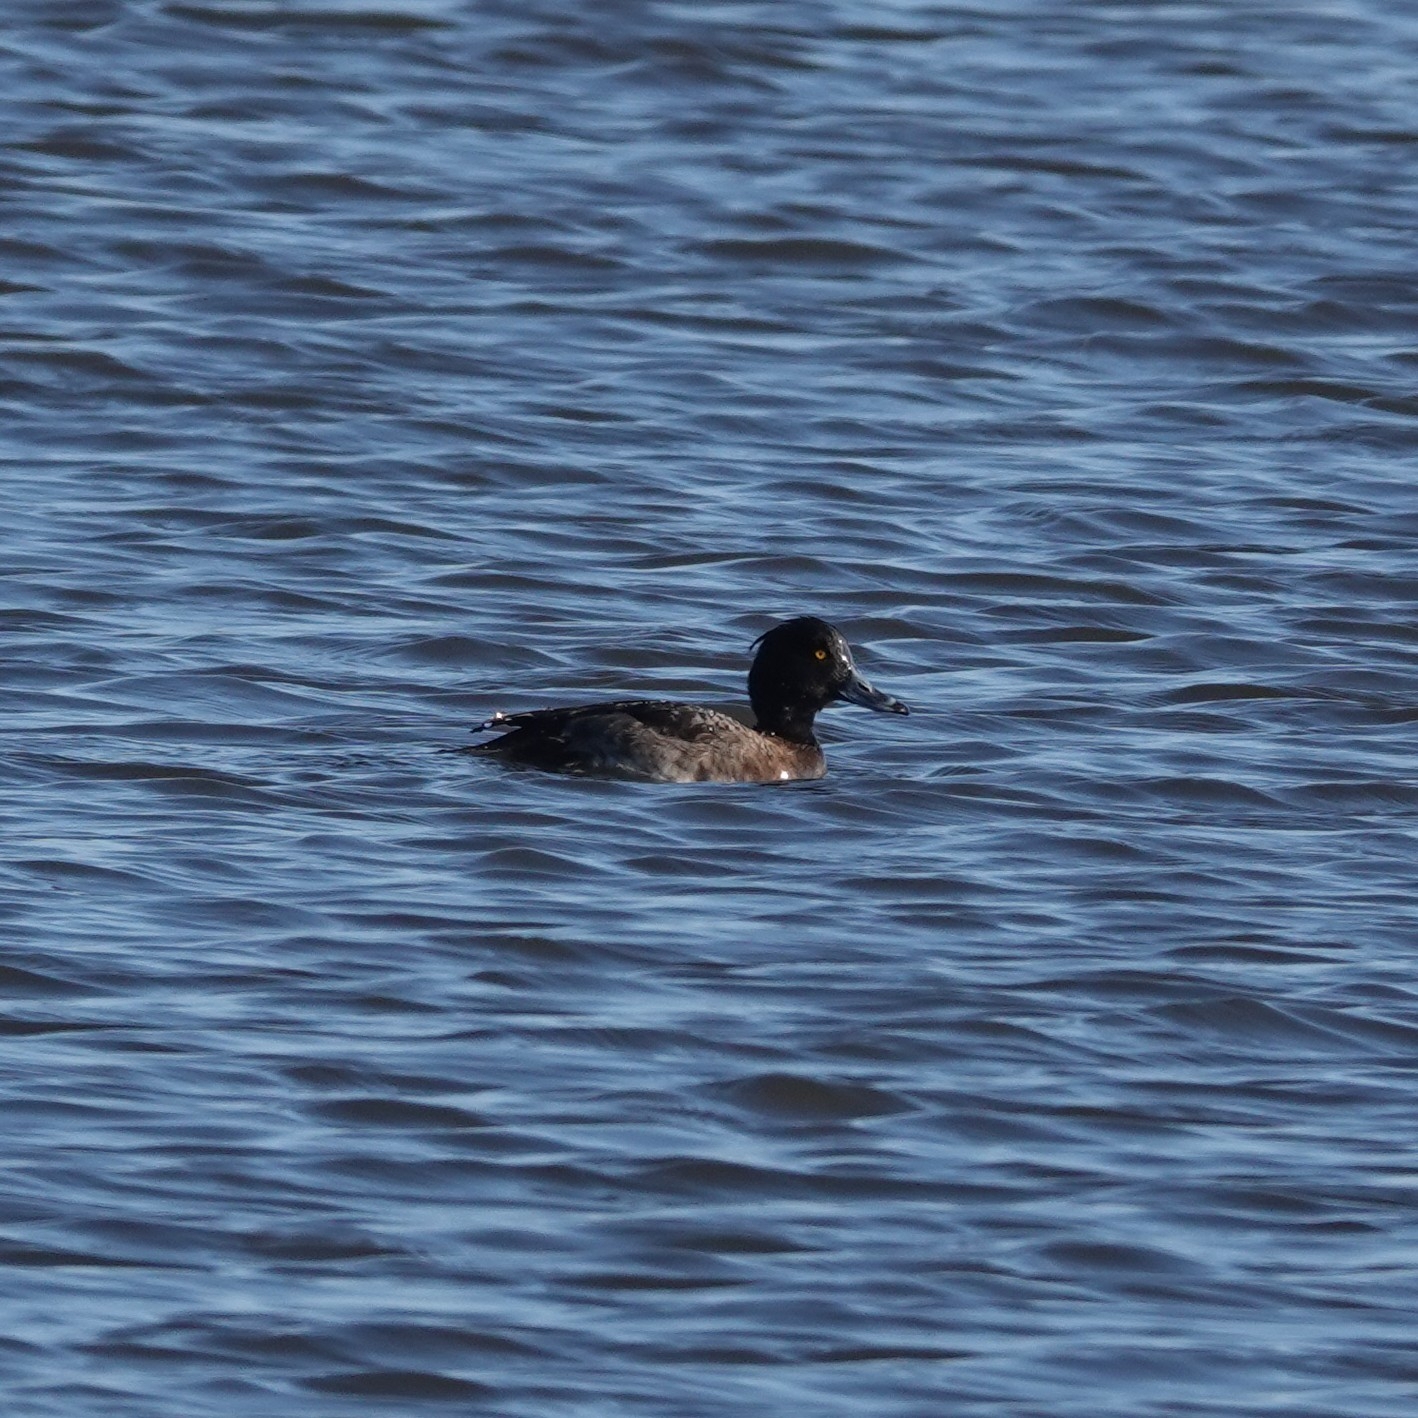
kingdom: Animalia
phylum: Chordata
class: Aves
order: Anseriformes
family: Anatidae
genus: Aythya
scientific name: Aythya fuligula
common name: Tufted duck
